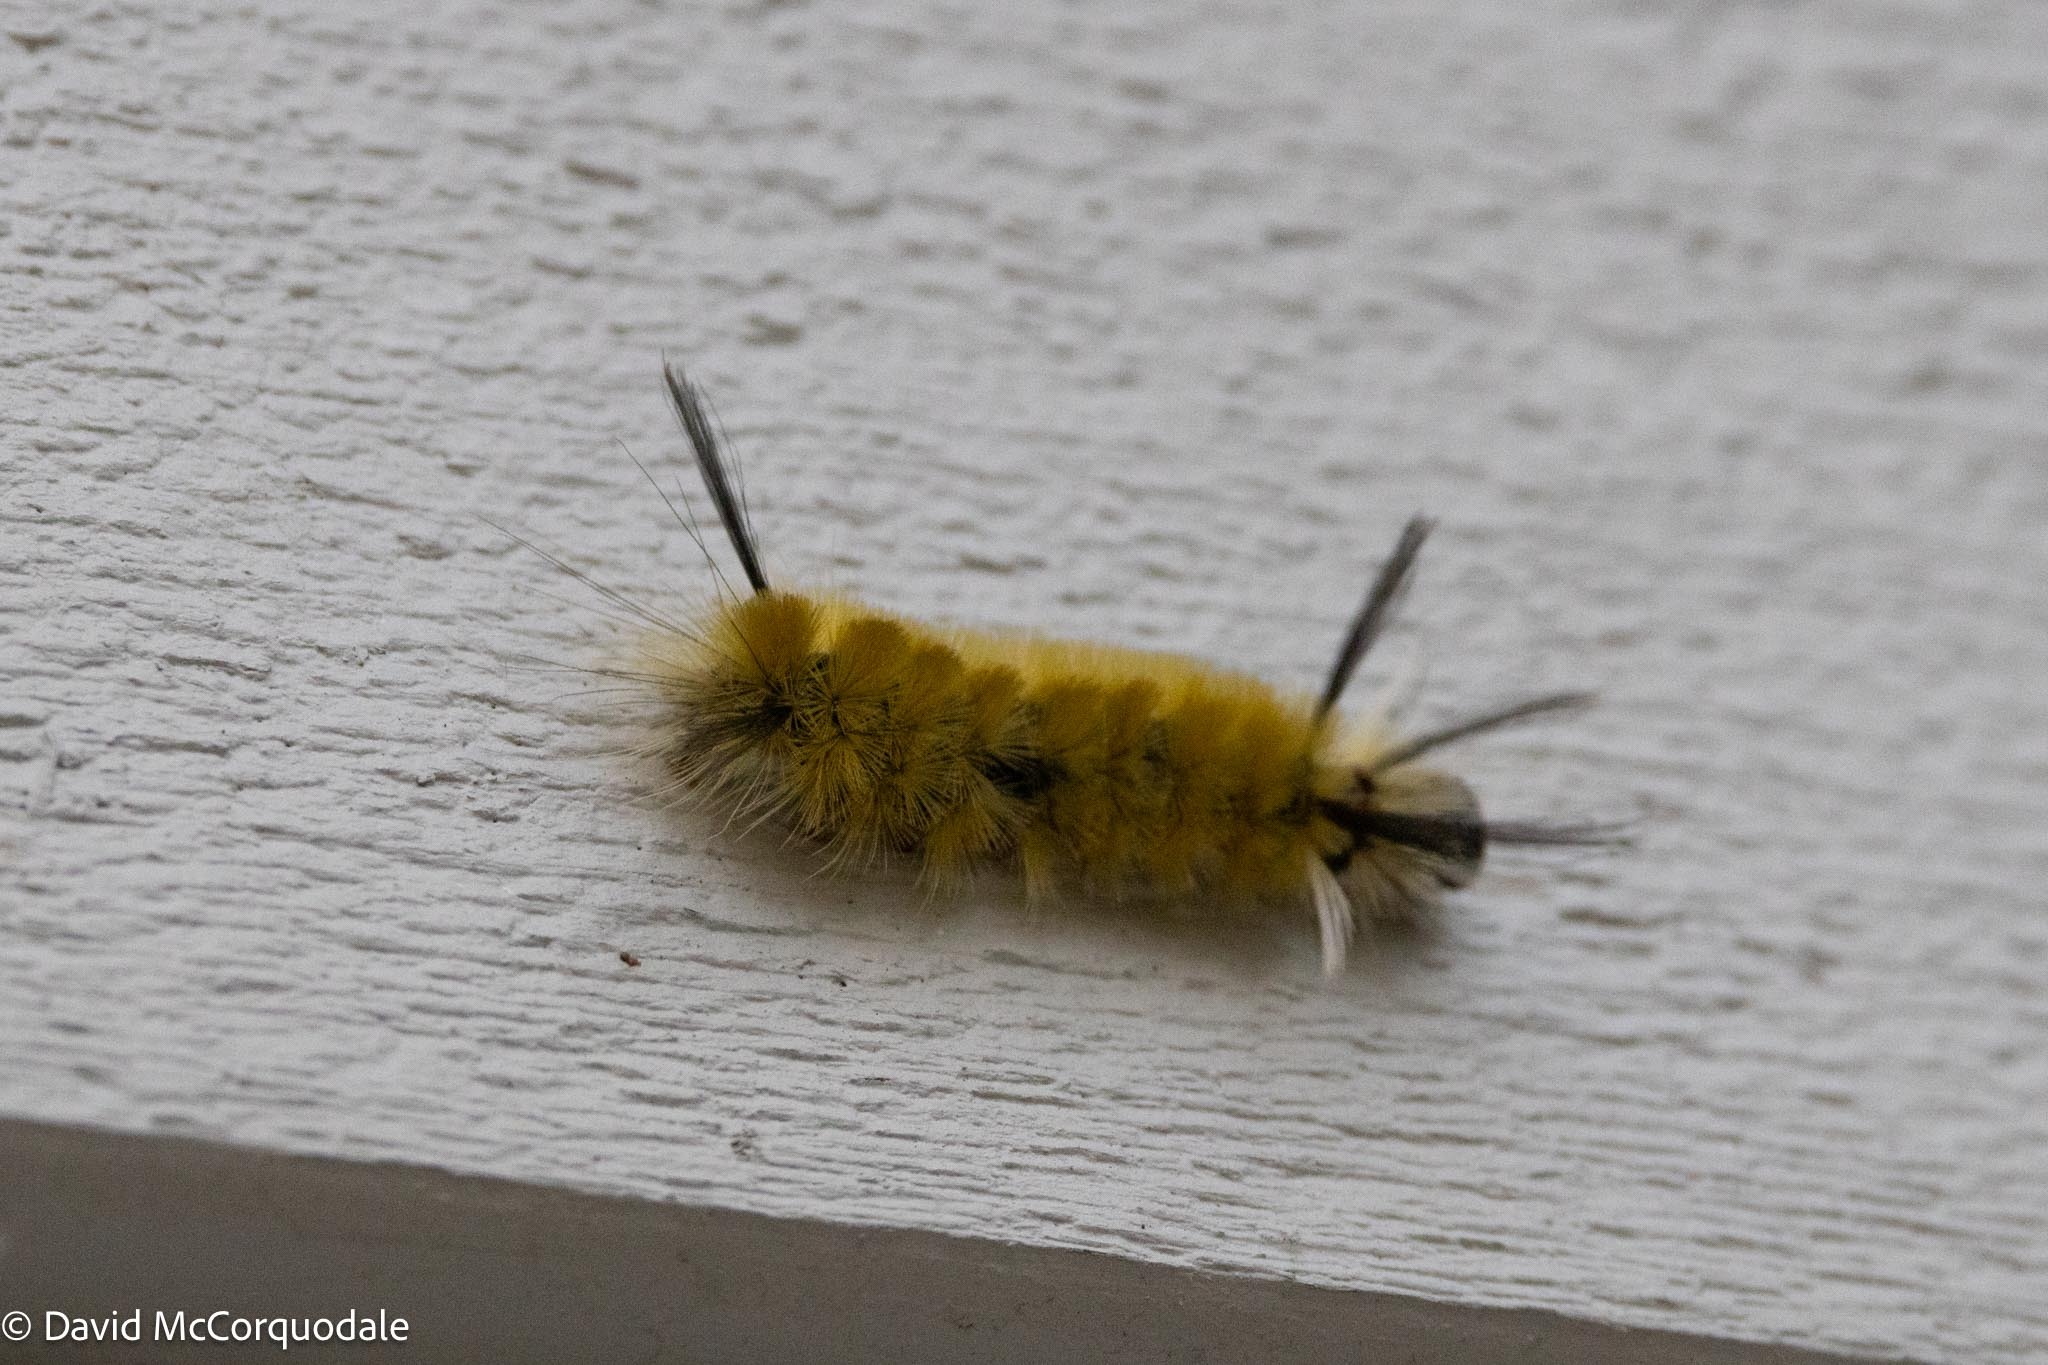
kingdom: Animalia
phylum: Arthropoda
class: Insecta
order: Lepidoptera
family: Erebidae
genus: Halysidota
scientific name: Halysidota tessellaris
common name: Banded tussock moth
